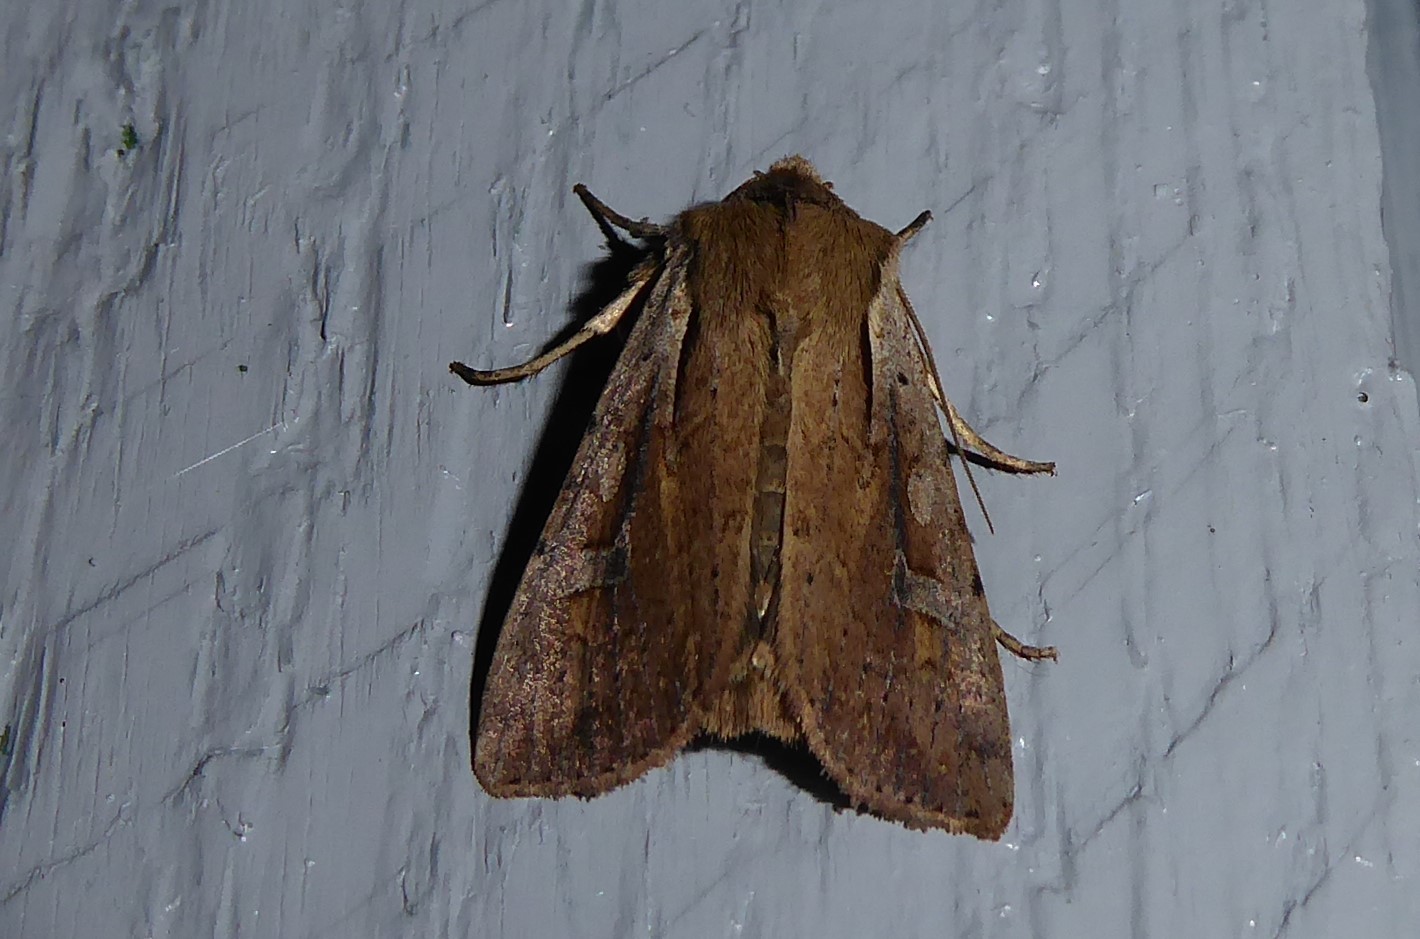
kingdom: Animalia
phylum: Arthropoda
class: Insecta
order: Lepidoptera
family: Noctuidae
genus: Ichneutica
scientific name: Ichneutica atristriga
